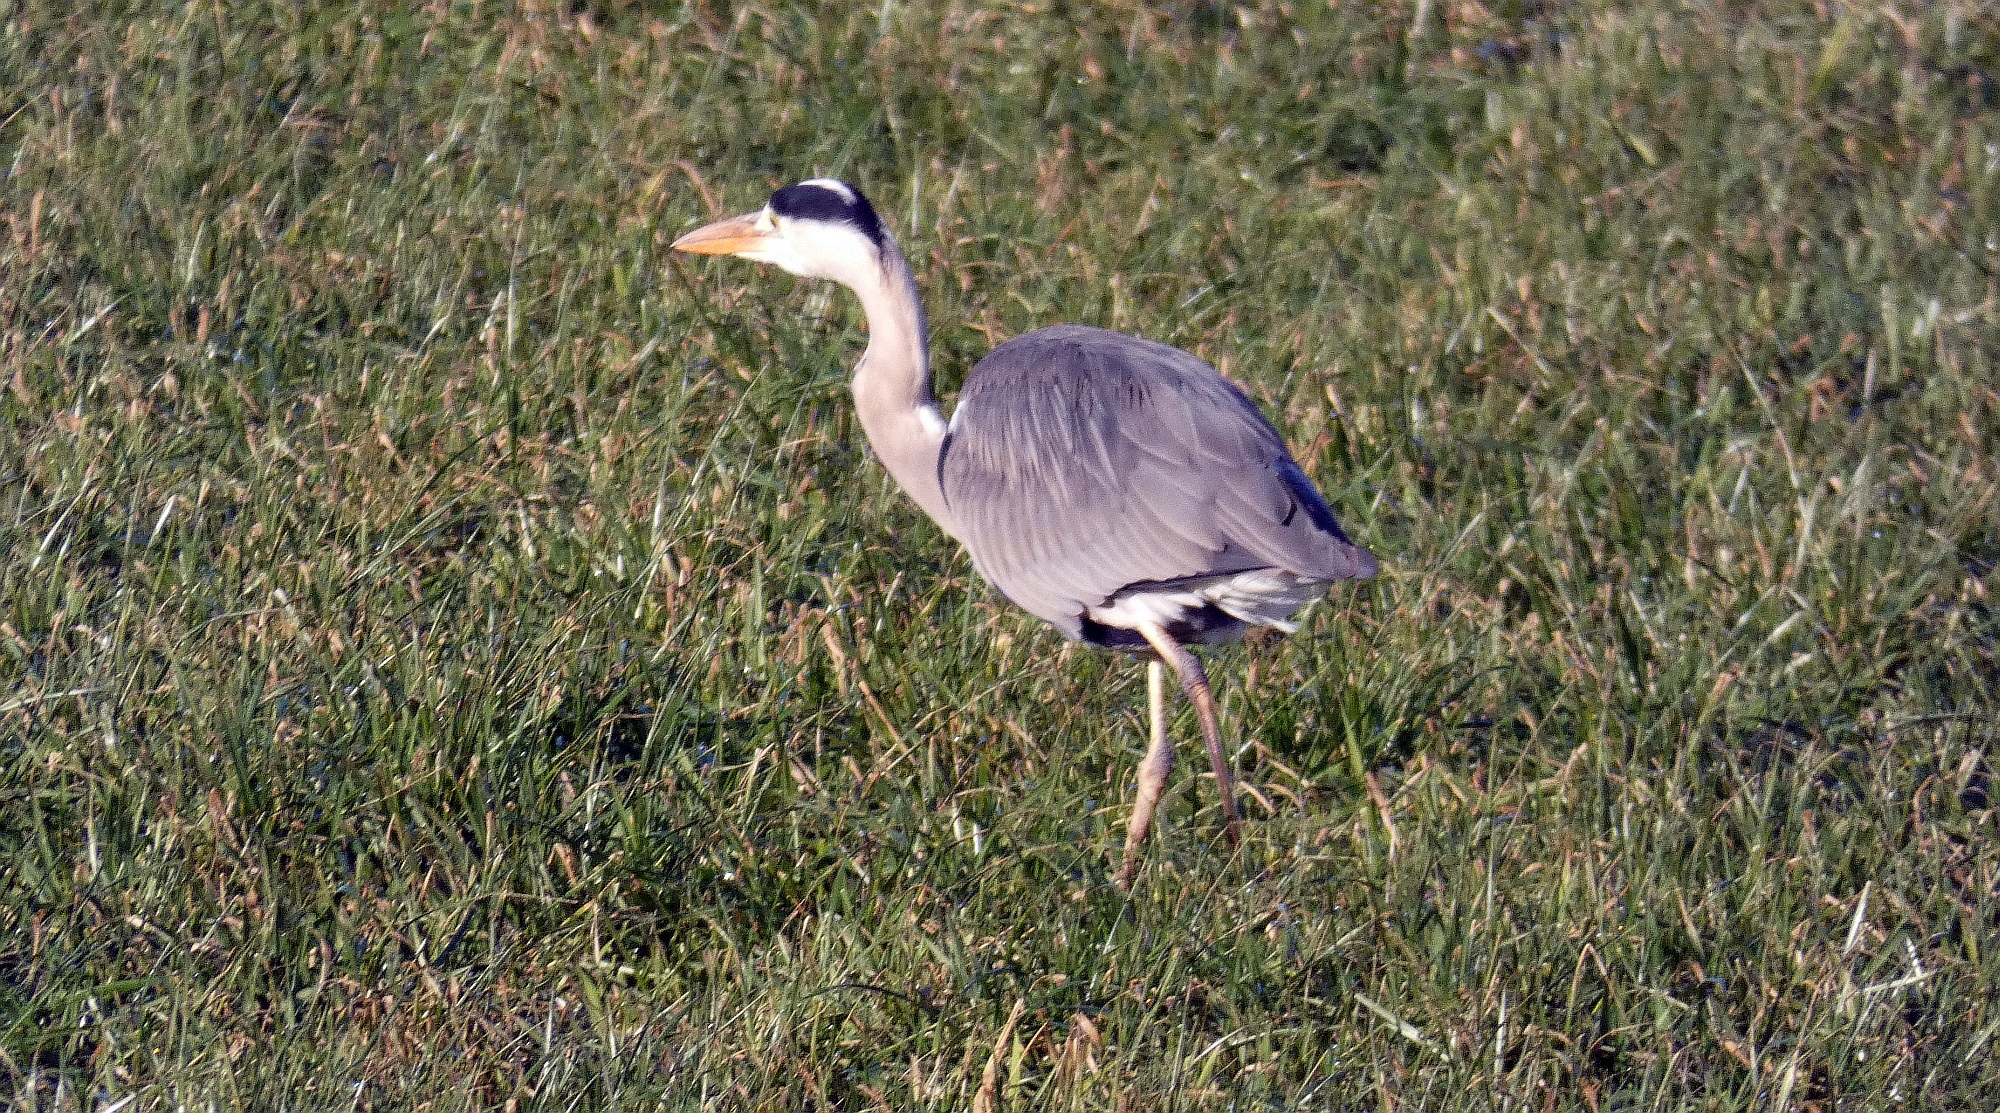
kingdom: Animalia
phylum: Chordata
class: Aves
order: Pelecaniformes
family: Ardeidae
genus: Ardea
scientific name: Ardea cinerea
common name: Grey heron
